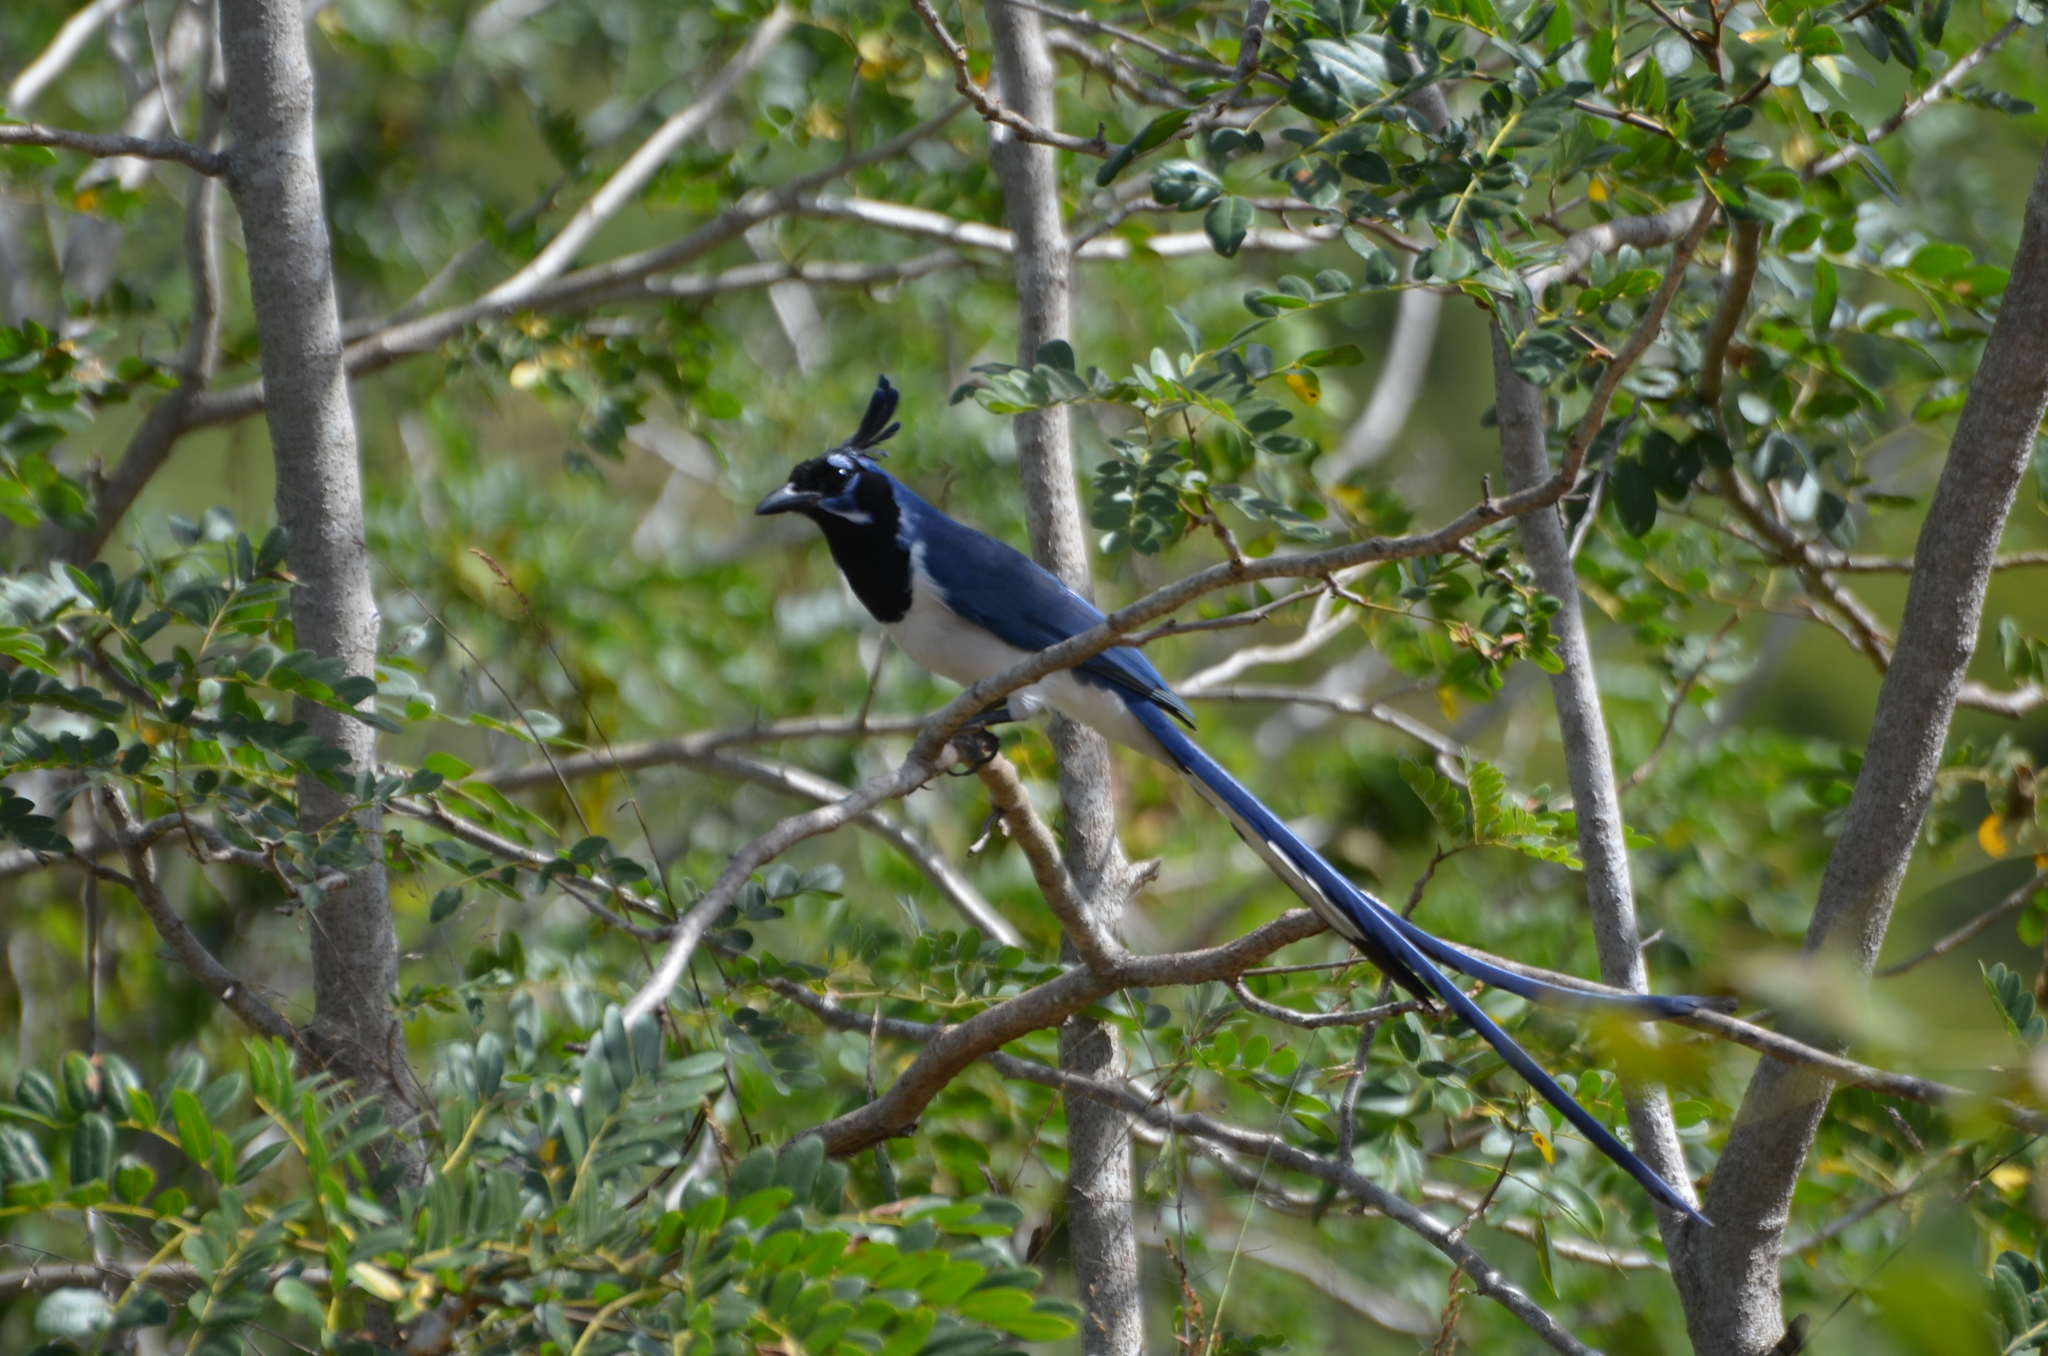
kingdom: Animalia
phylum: Chordata
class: Aves
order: Passeriformes
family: Corvidae
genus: Calocitta
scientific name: Calocitta colliei
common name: Black-throated magpie-jay
